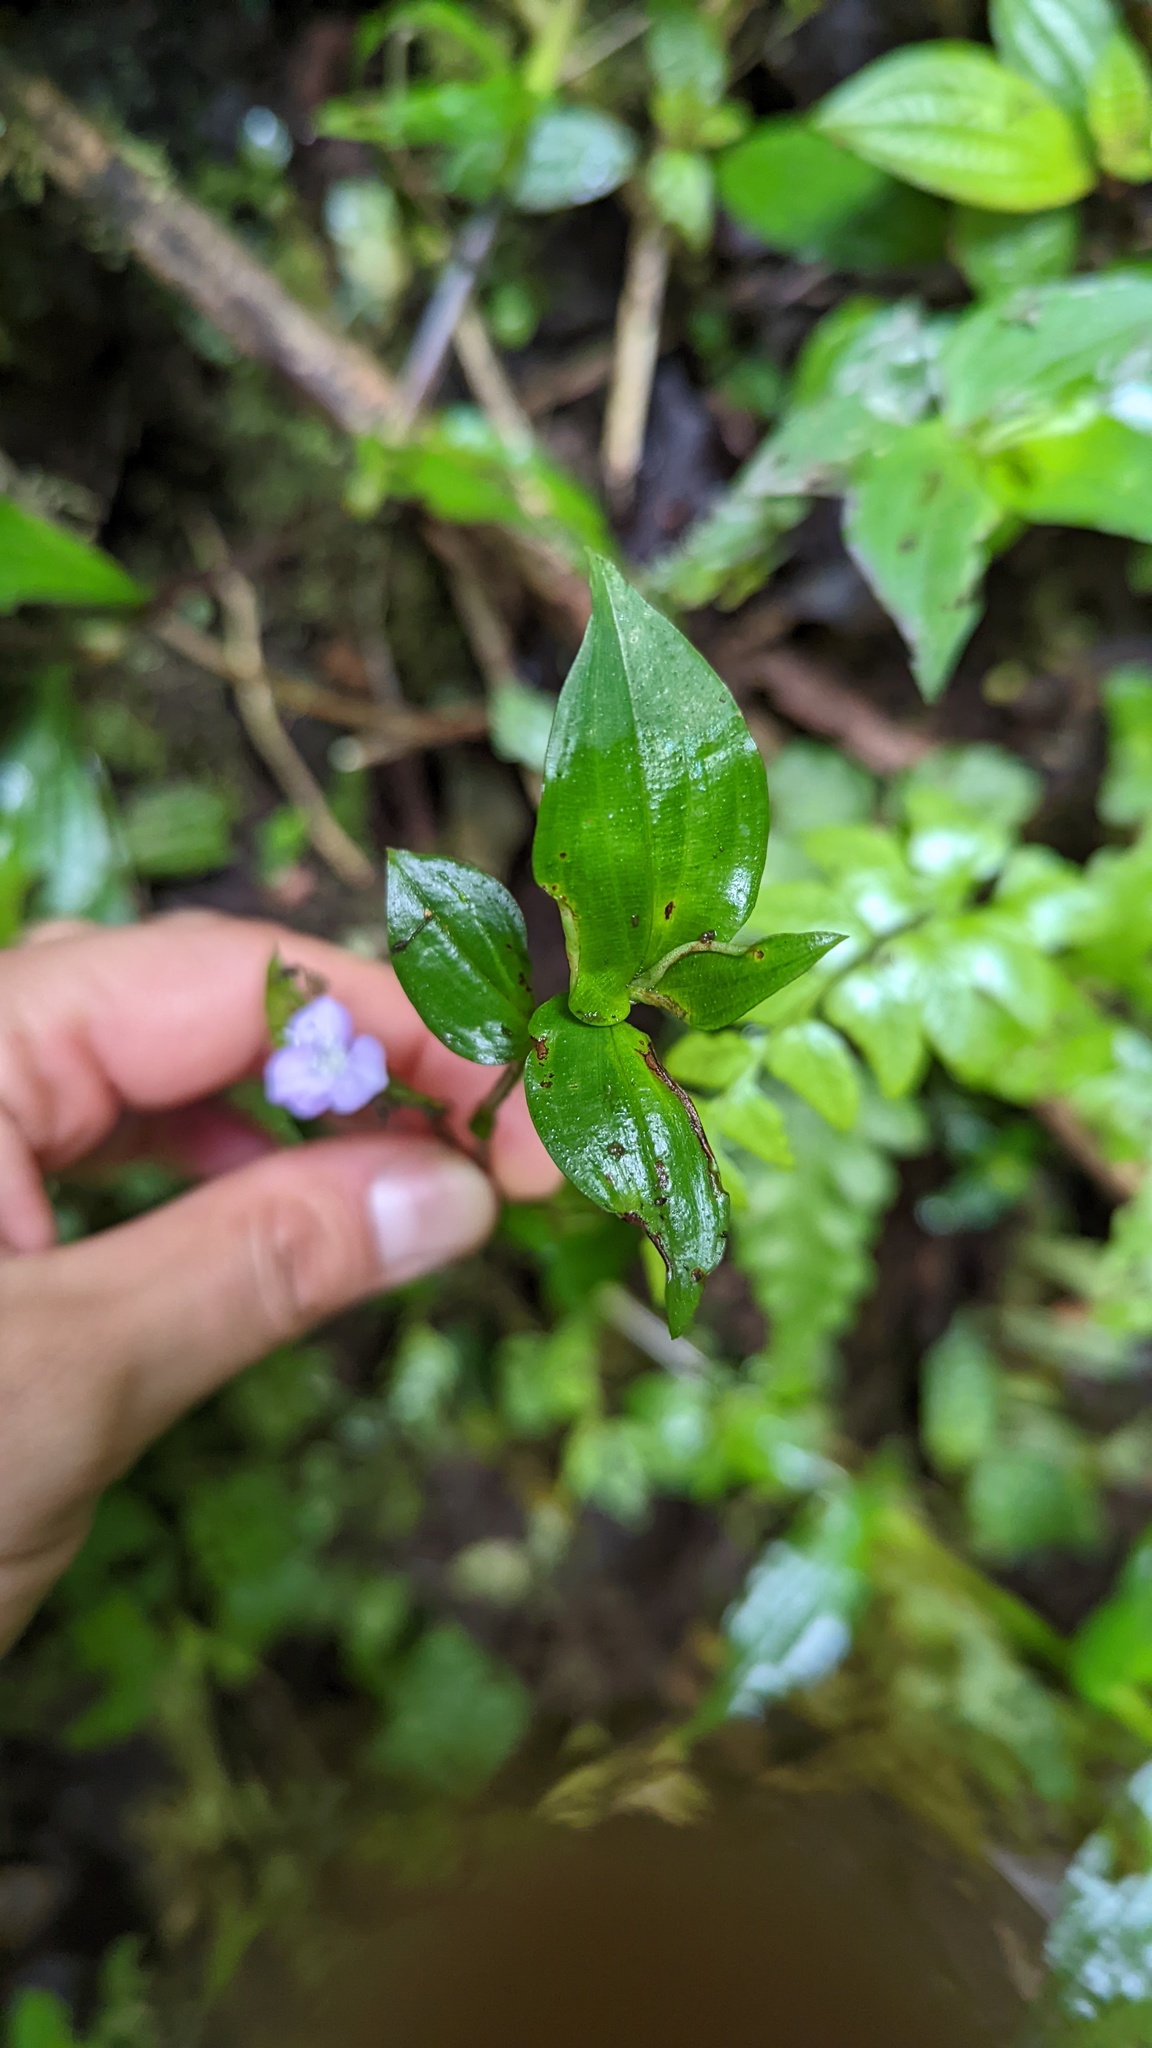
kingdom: Plantae
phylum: Tracheophyta
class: Liliopsida
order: Commelinales
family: Commelinaceae
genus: Tradescantia
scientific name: Tradescantia poelliae
